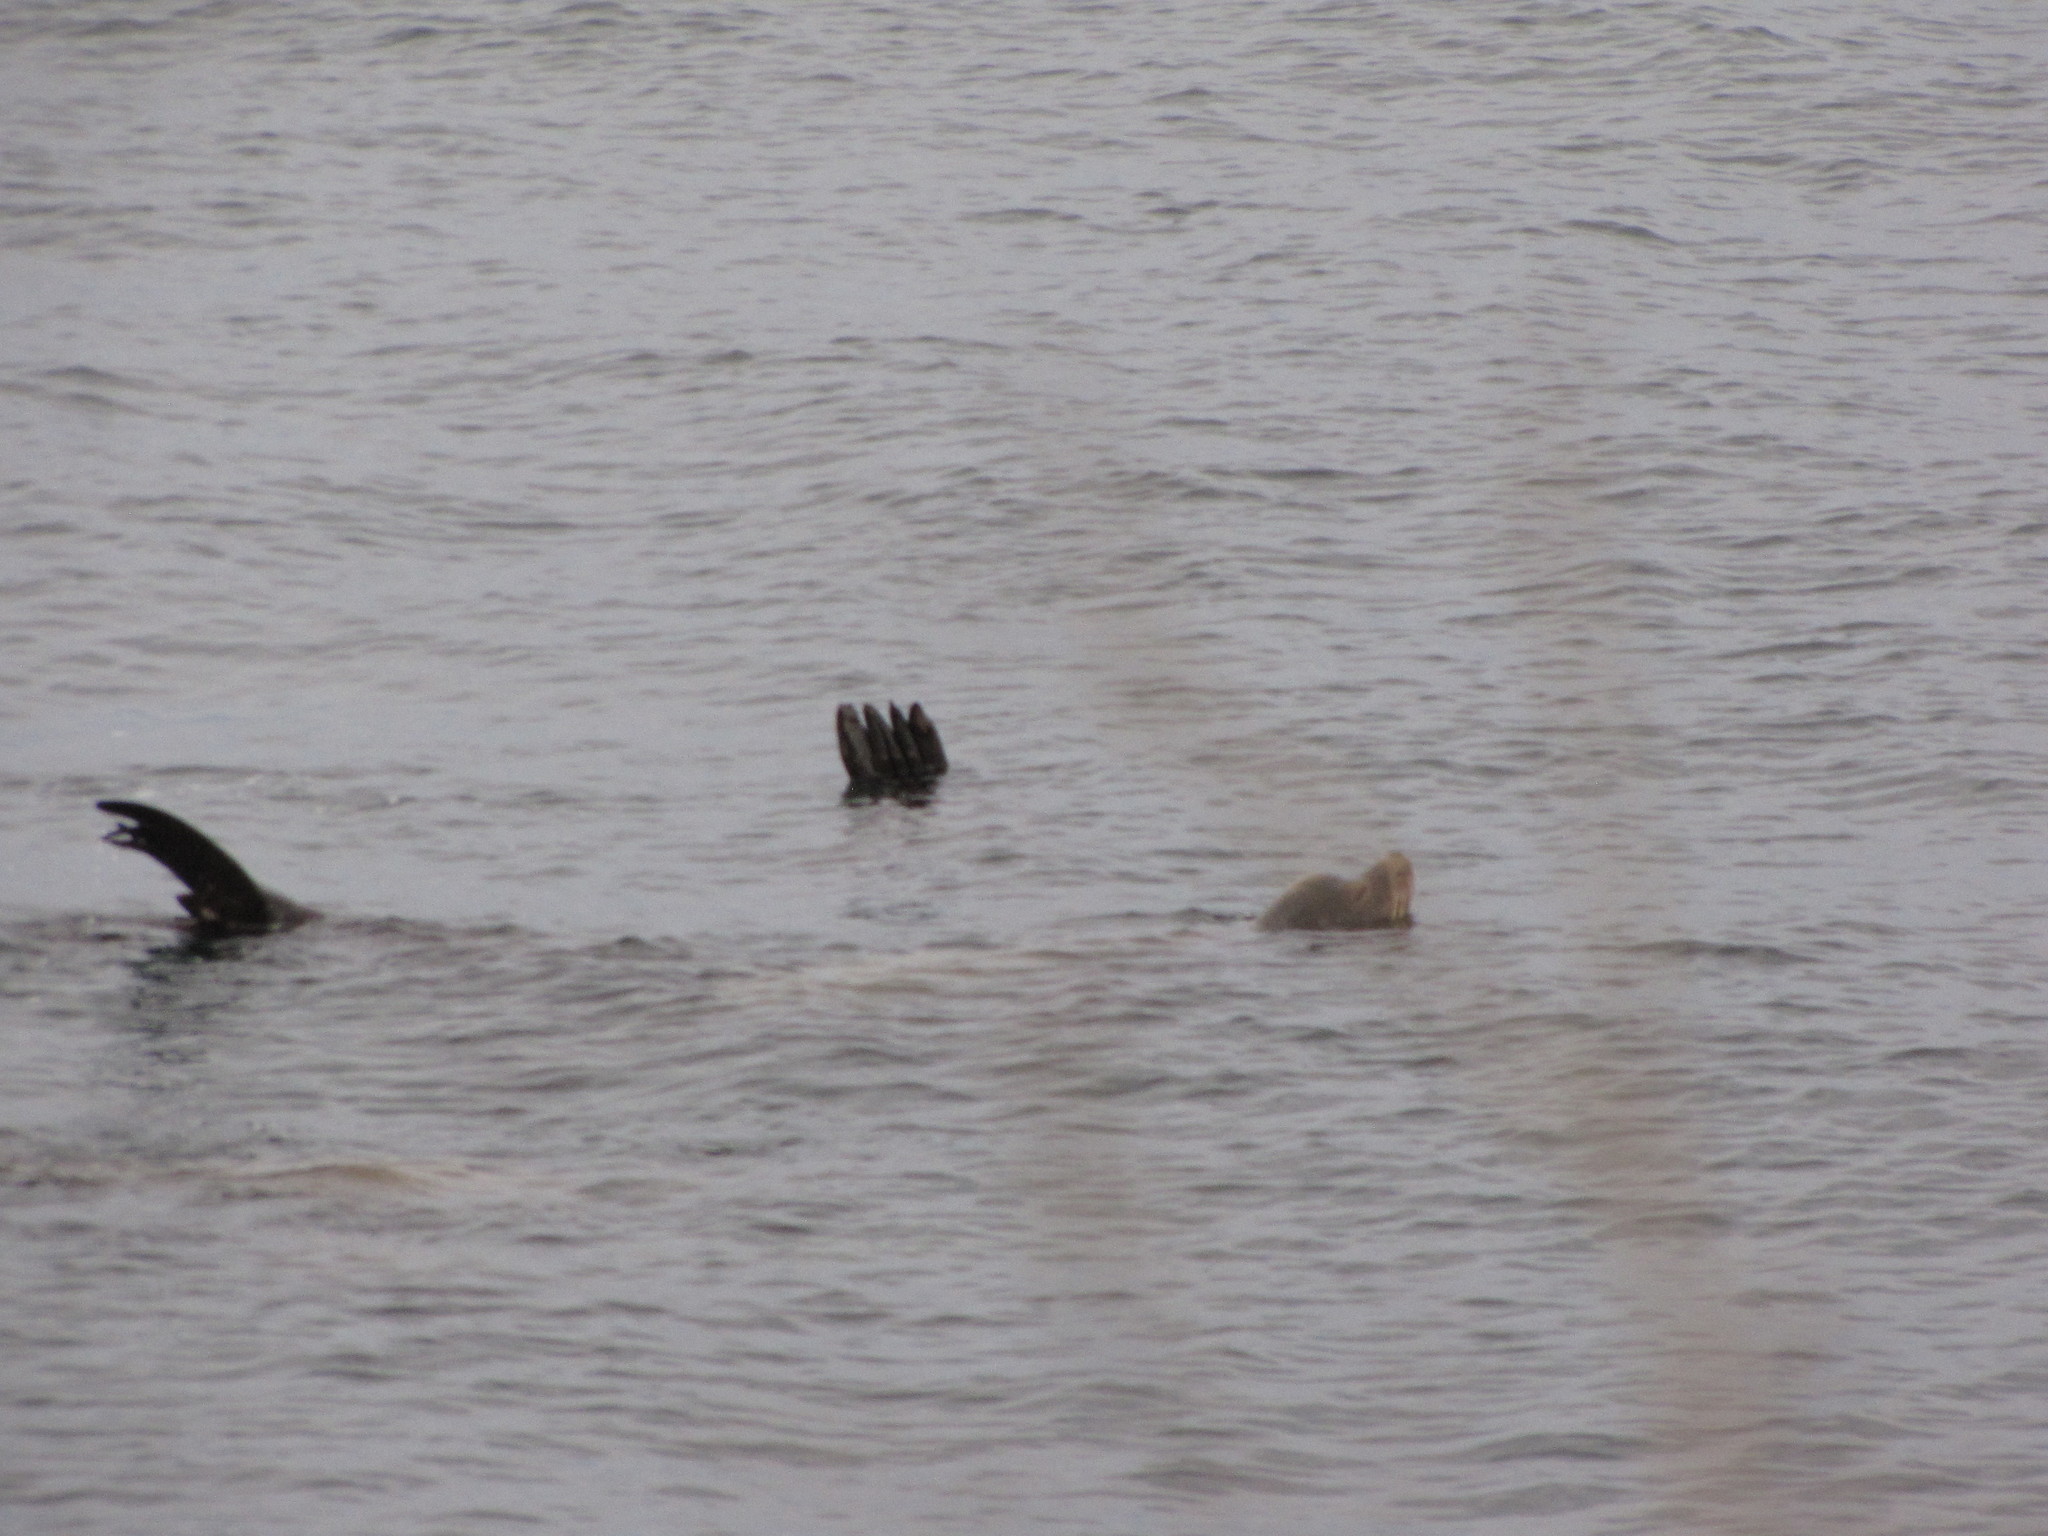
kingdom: Animalia
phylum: Chordata
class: Mammalia
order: Carnivora
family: Otariidae
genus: Zalophus
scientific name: Zalophus californianus
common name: California sea lion
